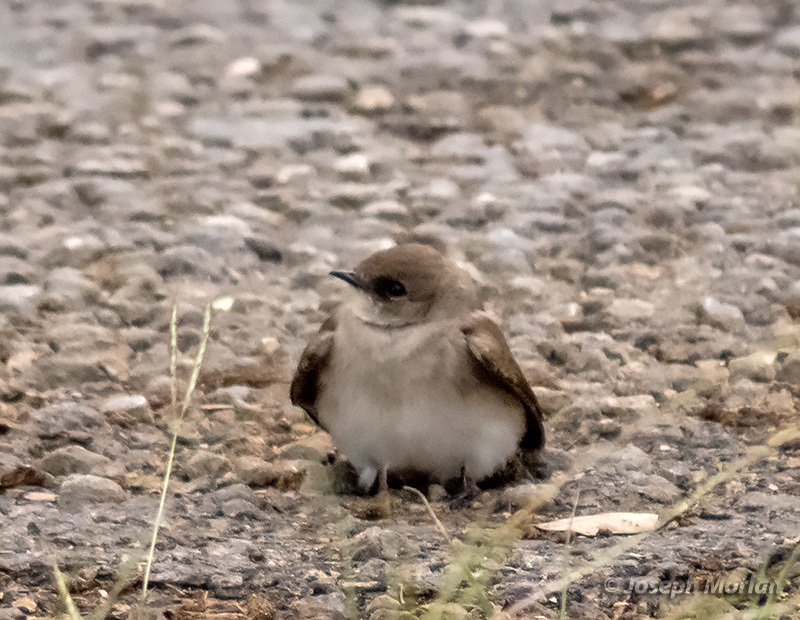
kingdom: Animalia
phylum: Chordata
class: Aves
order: Passeriformes
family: Hirundinidae
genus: Stelgidopteryx
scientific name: Stelgidopteryx serripennis
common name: Northern rough-winged swallow
